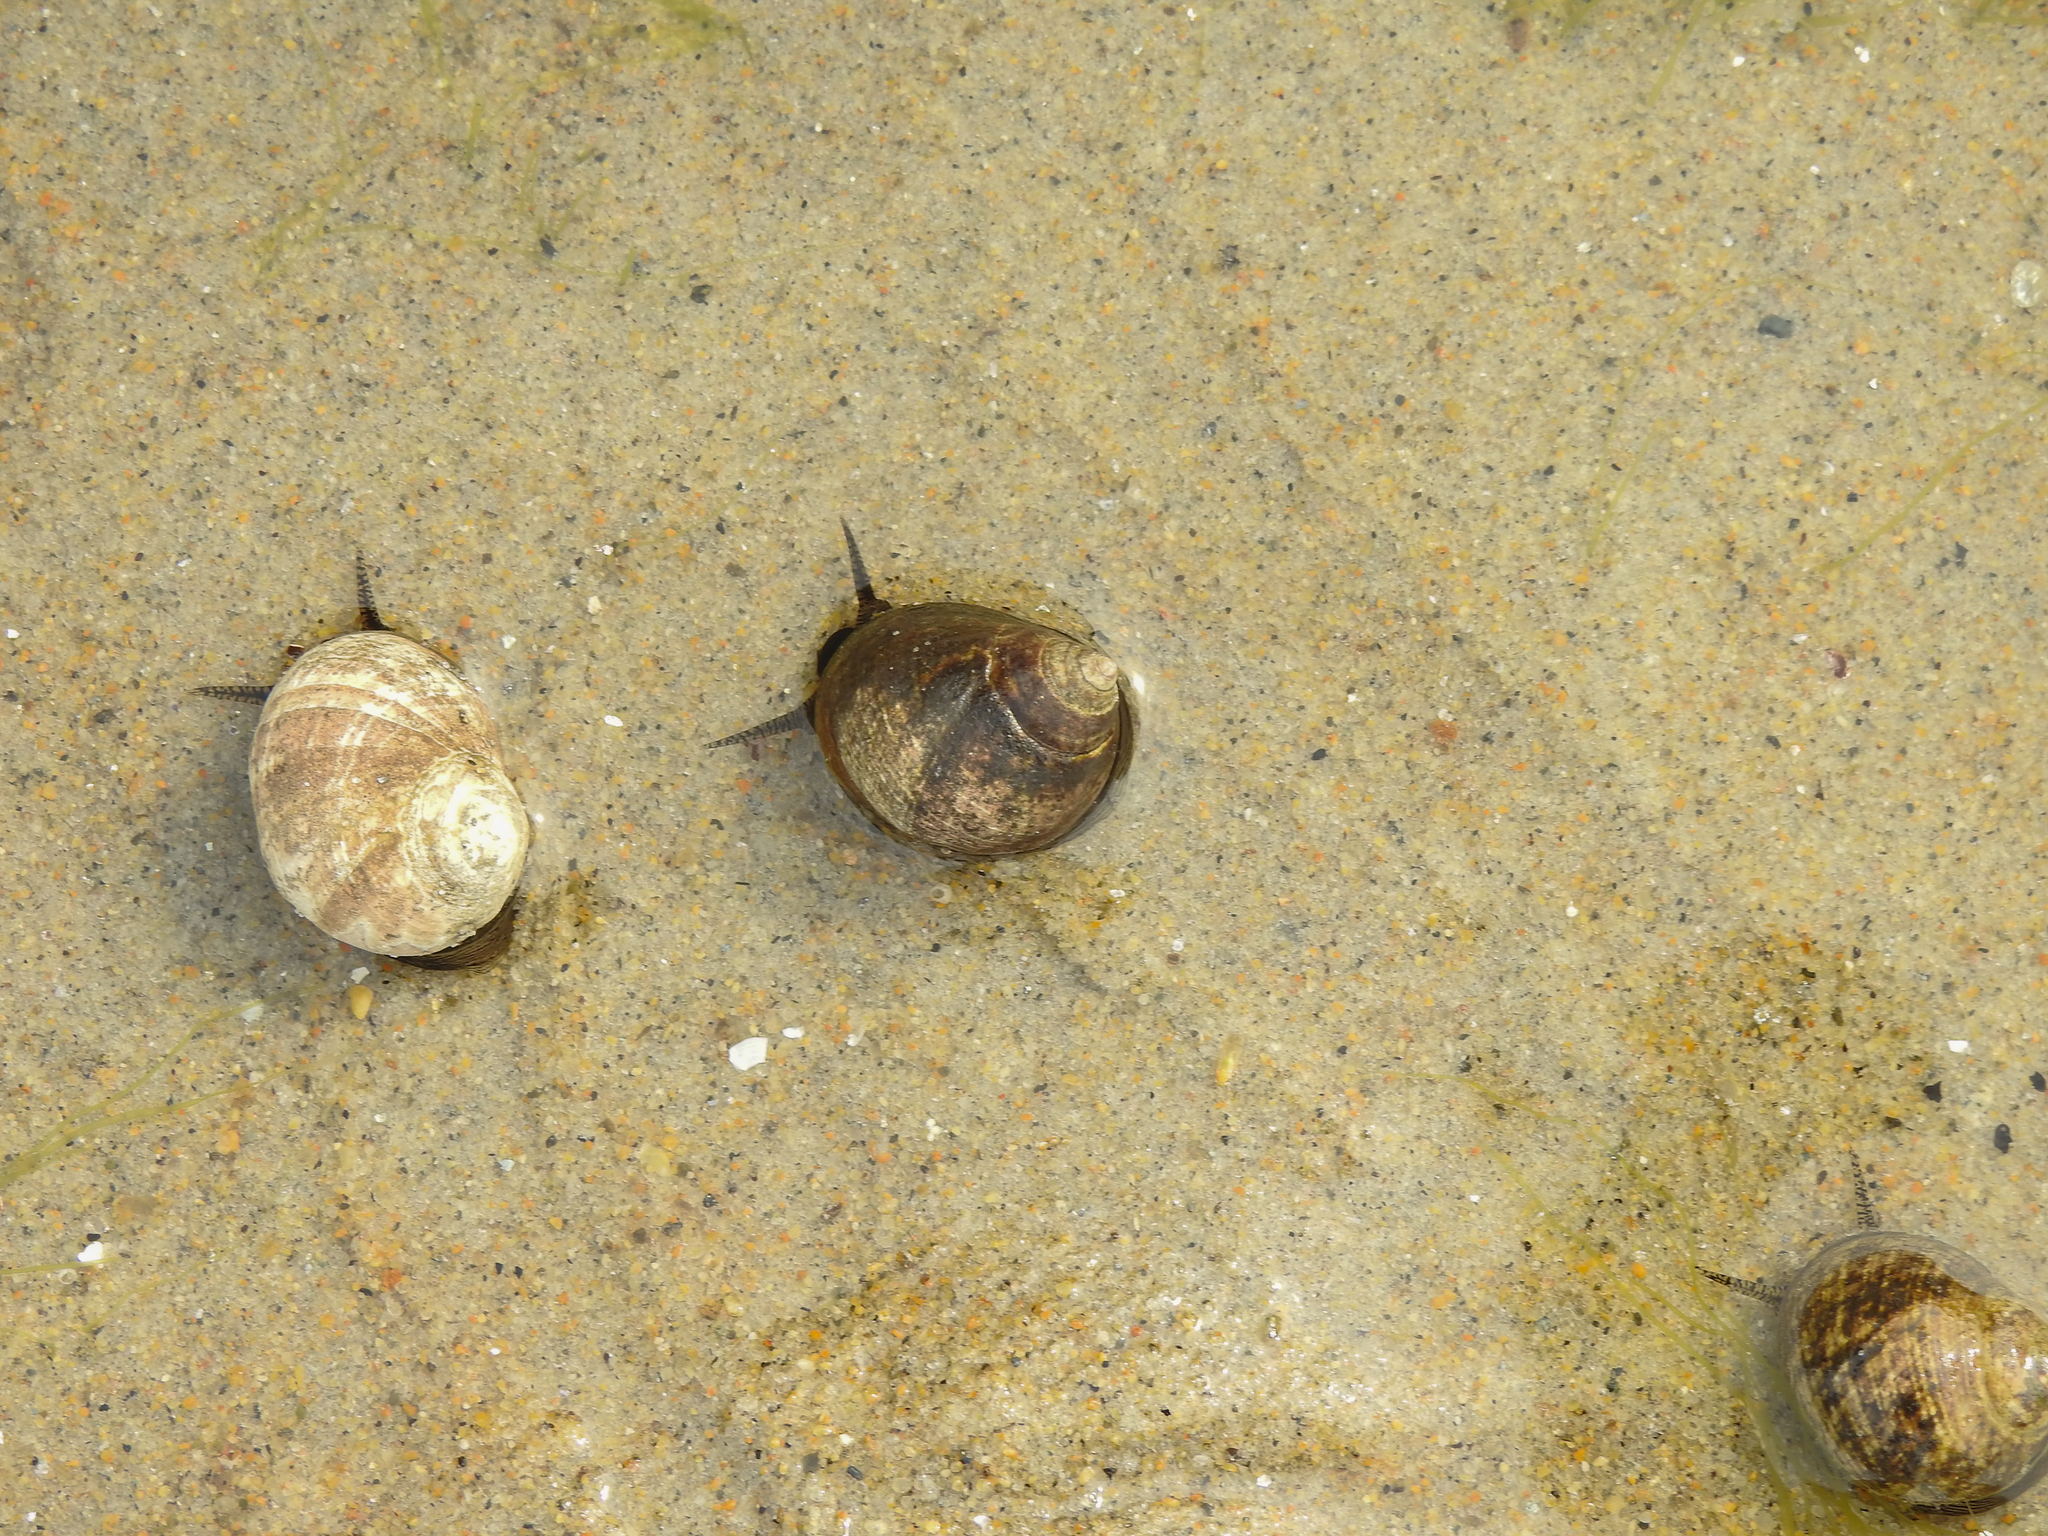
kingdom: Animalia
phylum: Mollusca
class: Gastropoda
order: Littorinimorpha
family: Littorinidae
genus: Littorina
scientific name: Littorina littorea
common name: Common periwinkle
